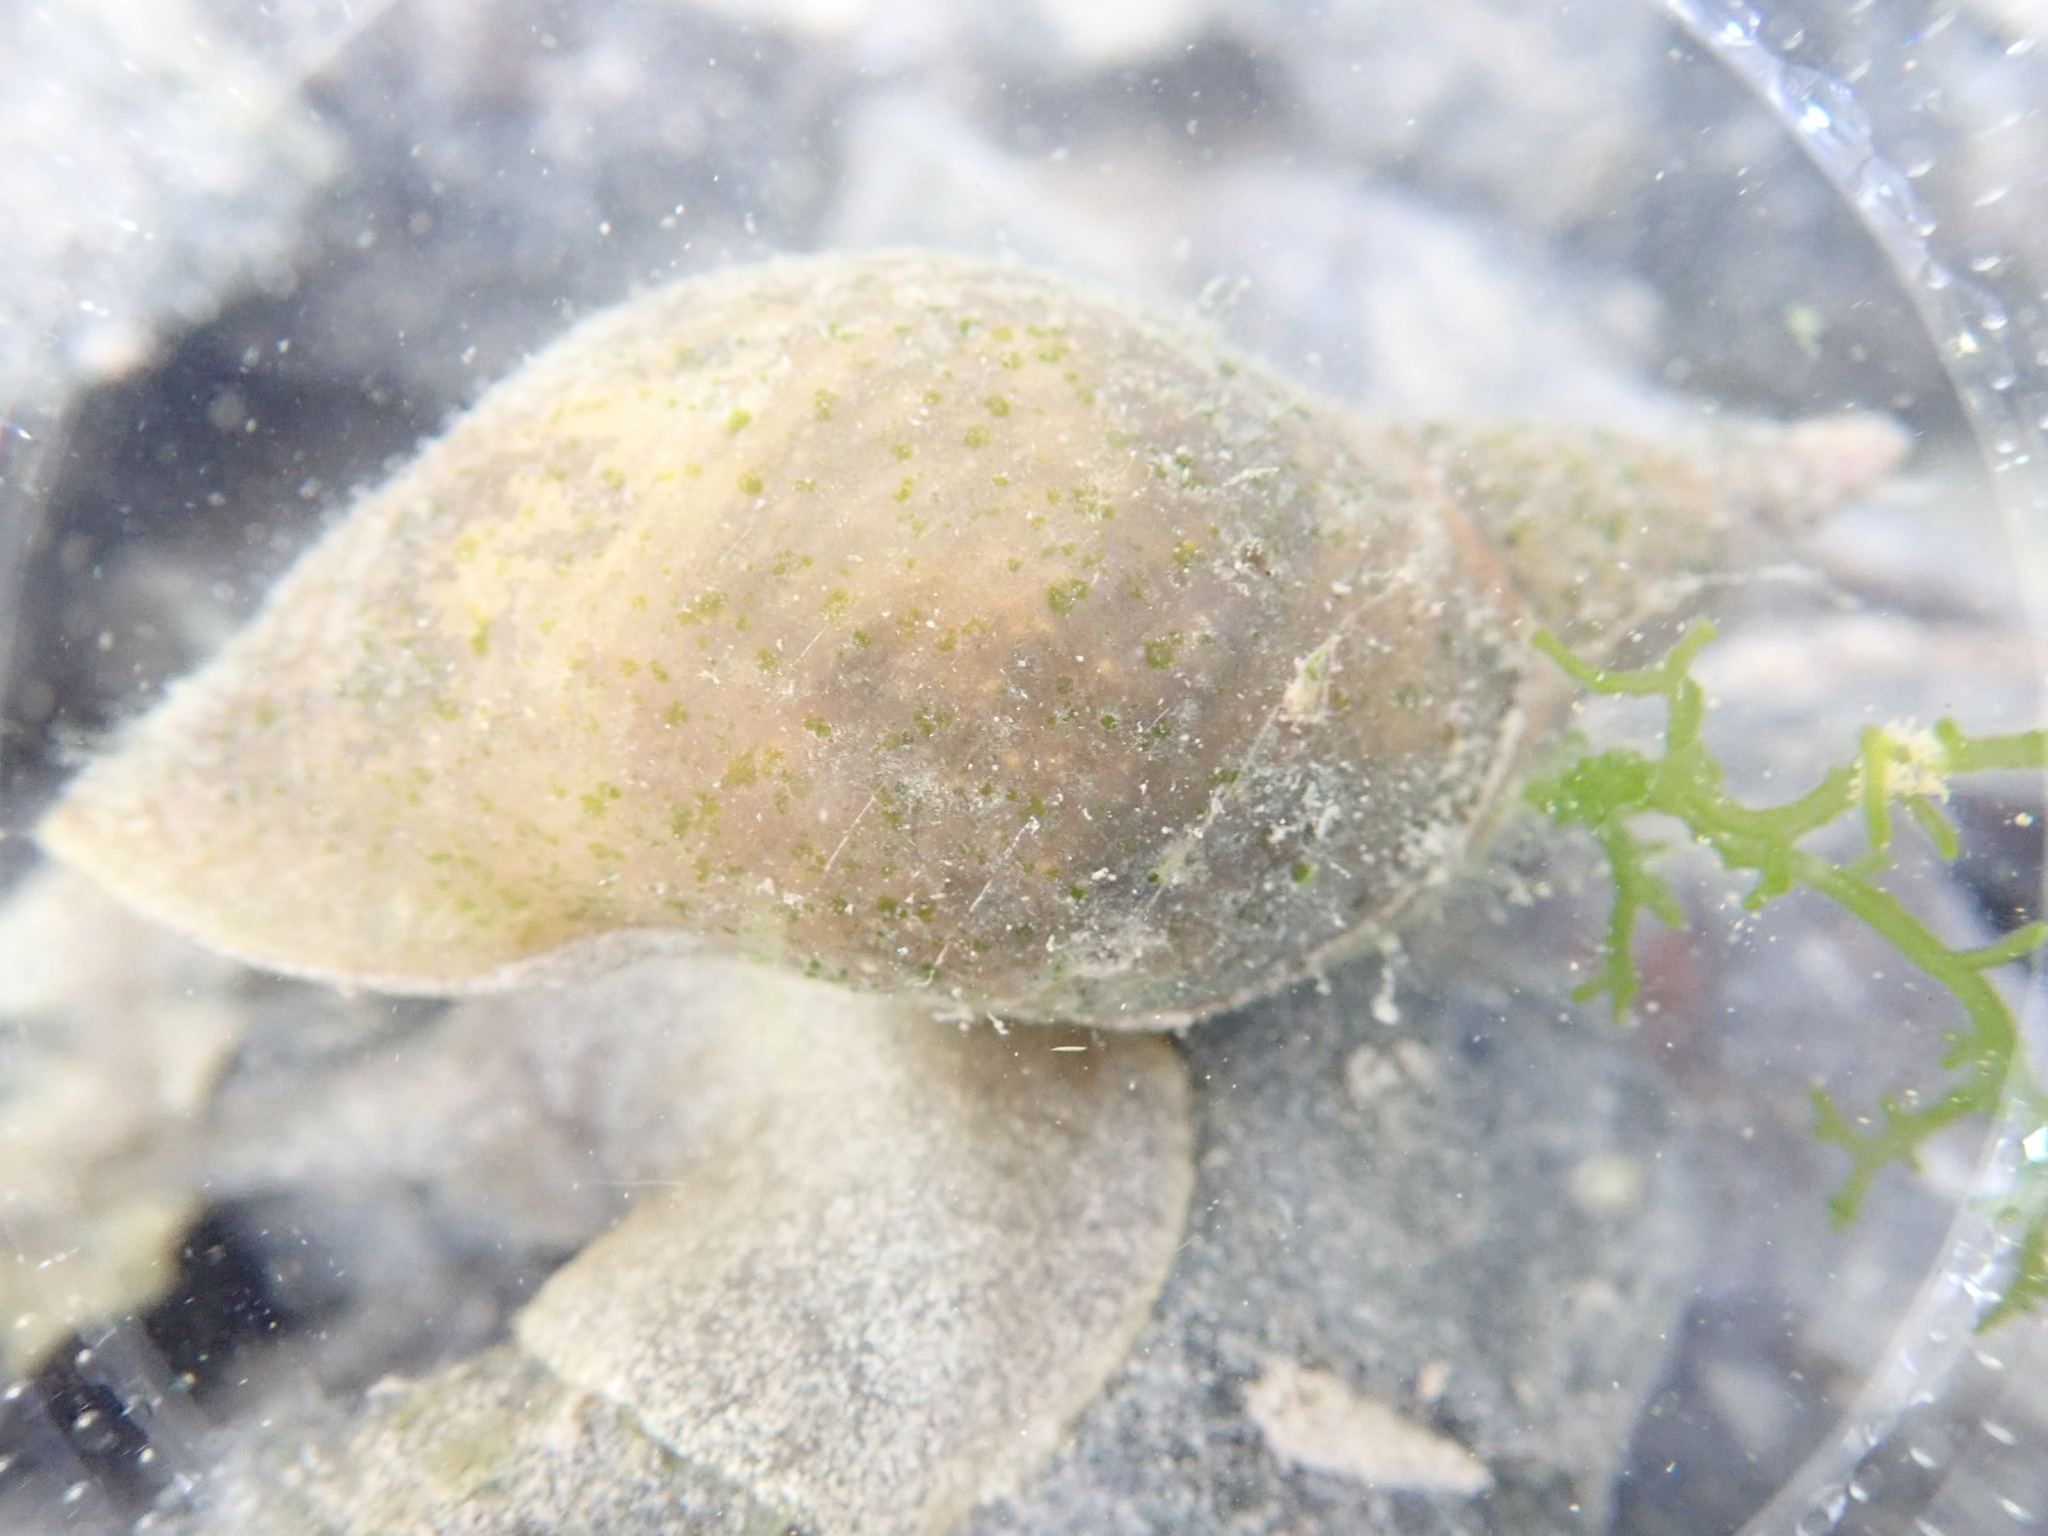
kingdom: Animalia
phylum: Mollusca
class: Gastropoda
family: Lymnaeidae
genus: Lymnaea
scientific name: Lymnaea stagnalis
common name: Great pond snail
